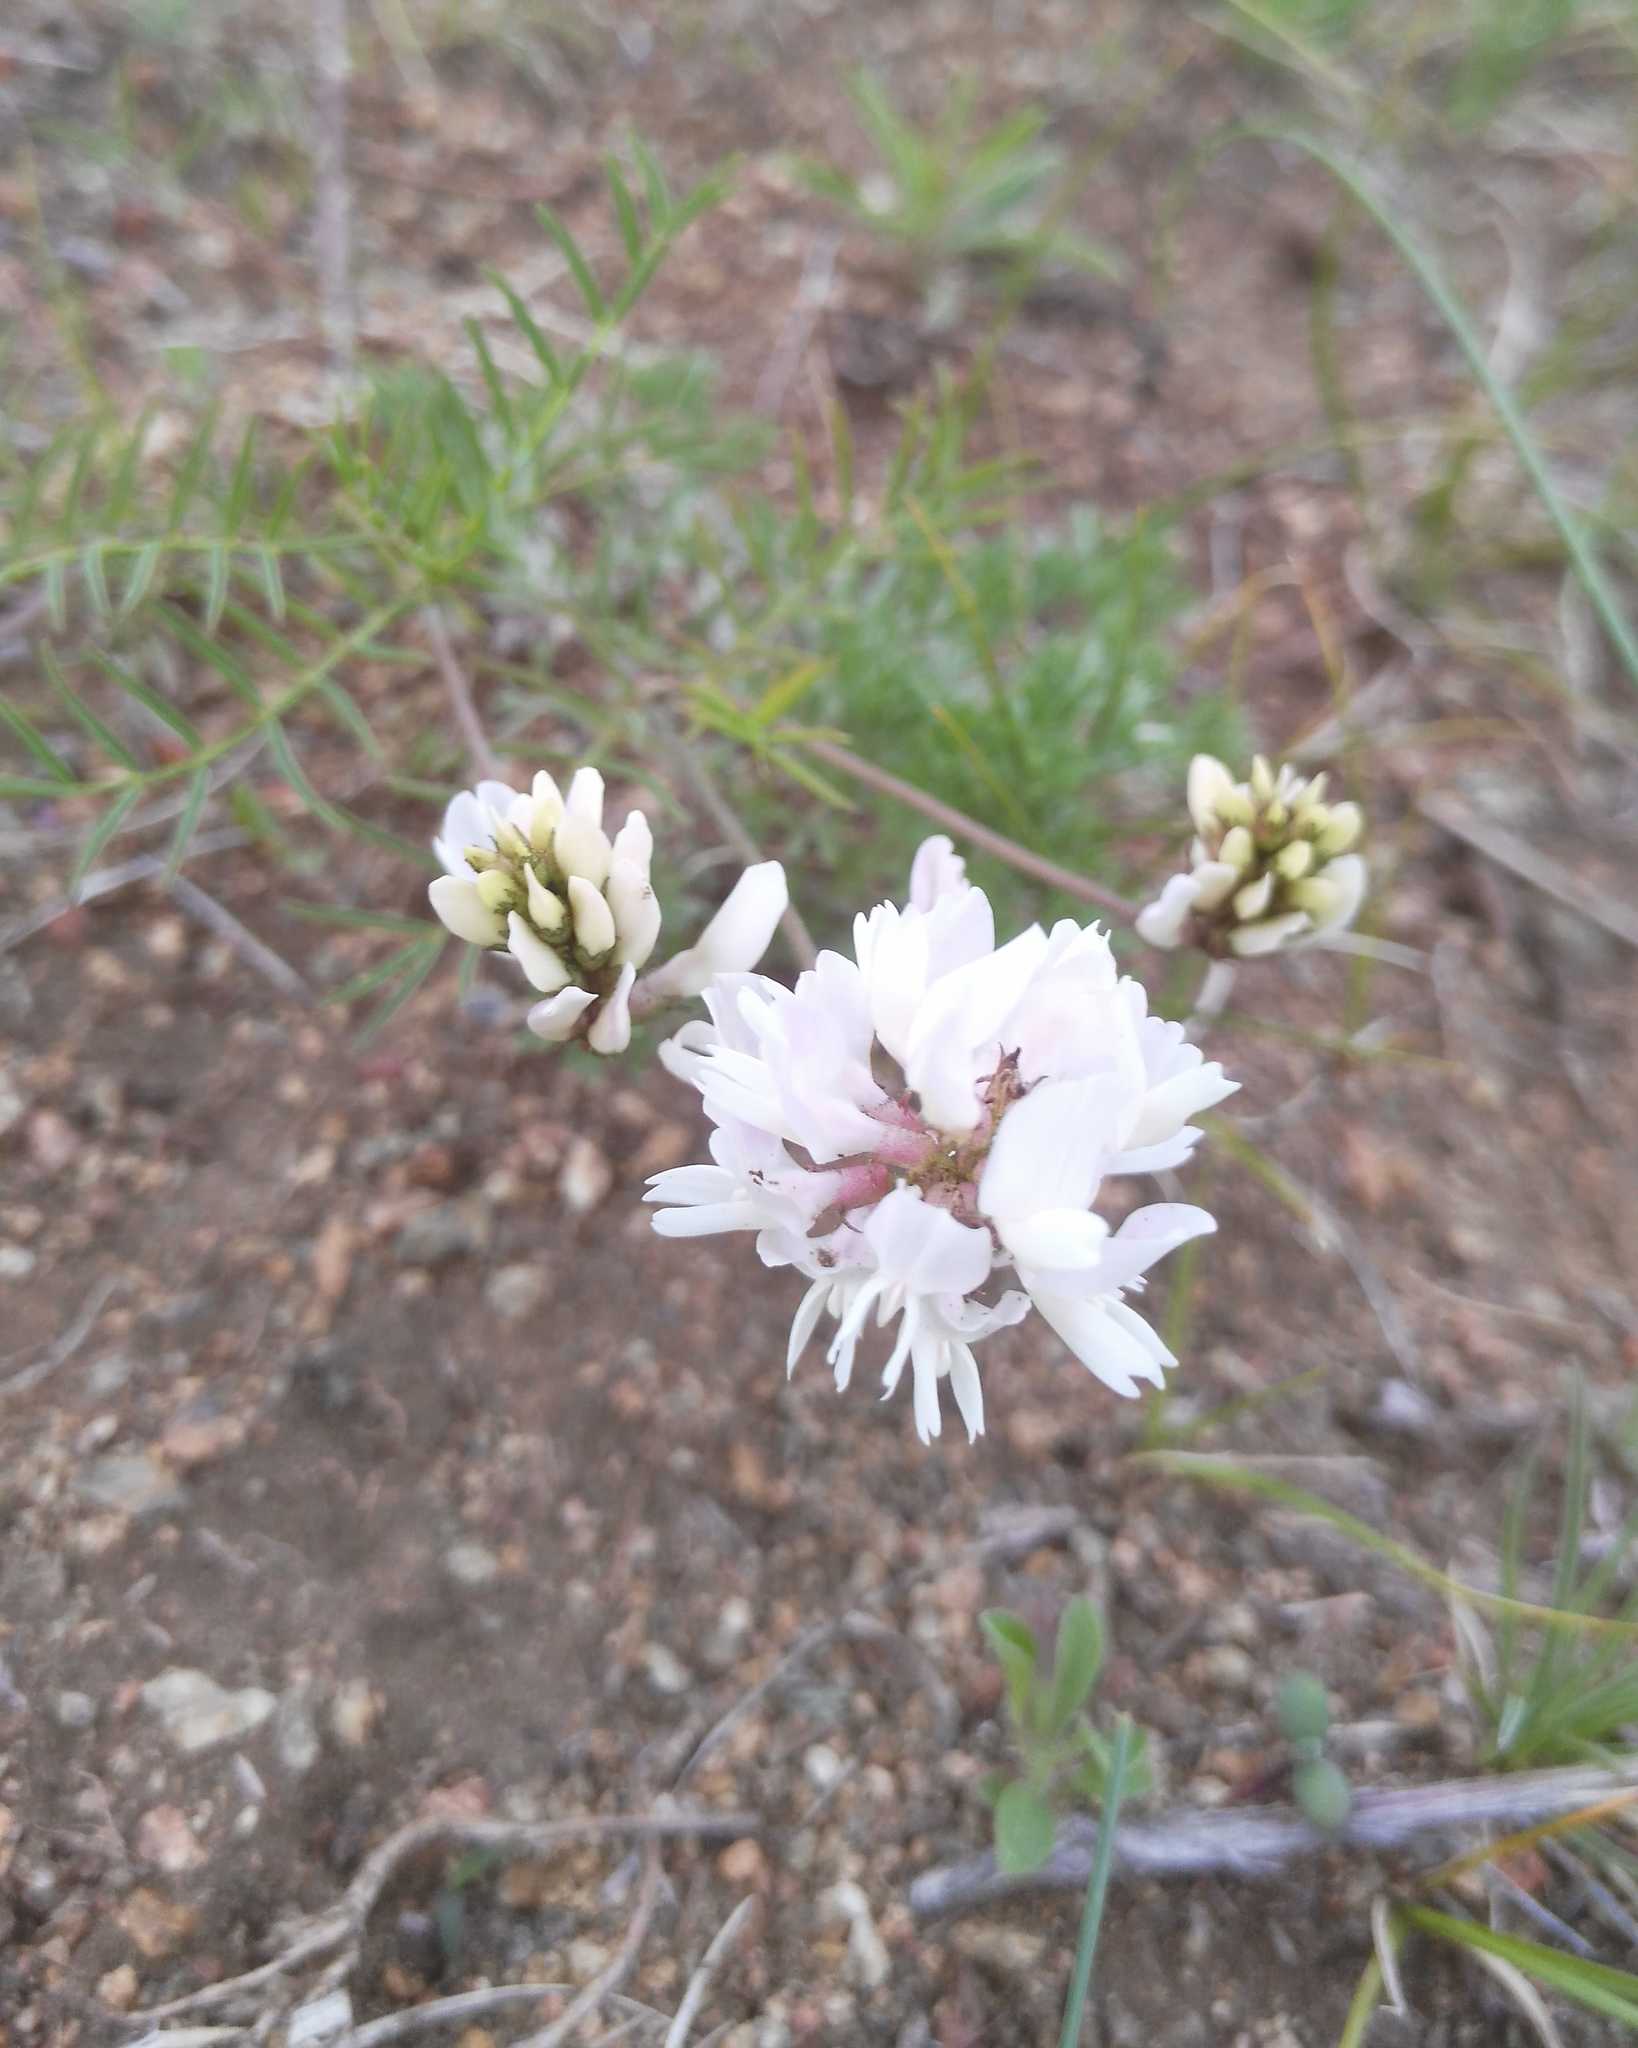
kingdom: Plantae
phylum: Tracheophyta
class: Magnoliopsida
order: Fabales
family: Fabaceae
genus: Astragalus
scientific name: Astragalus versicolor
